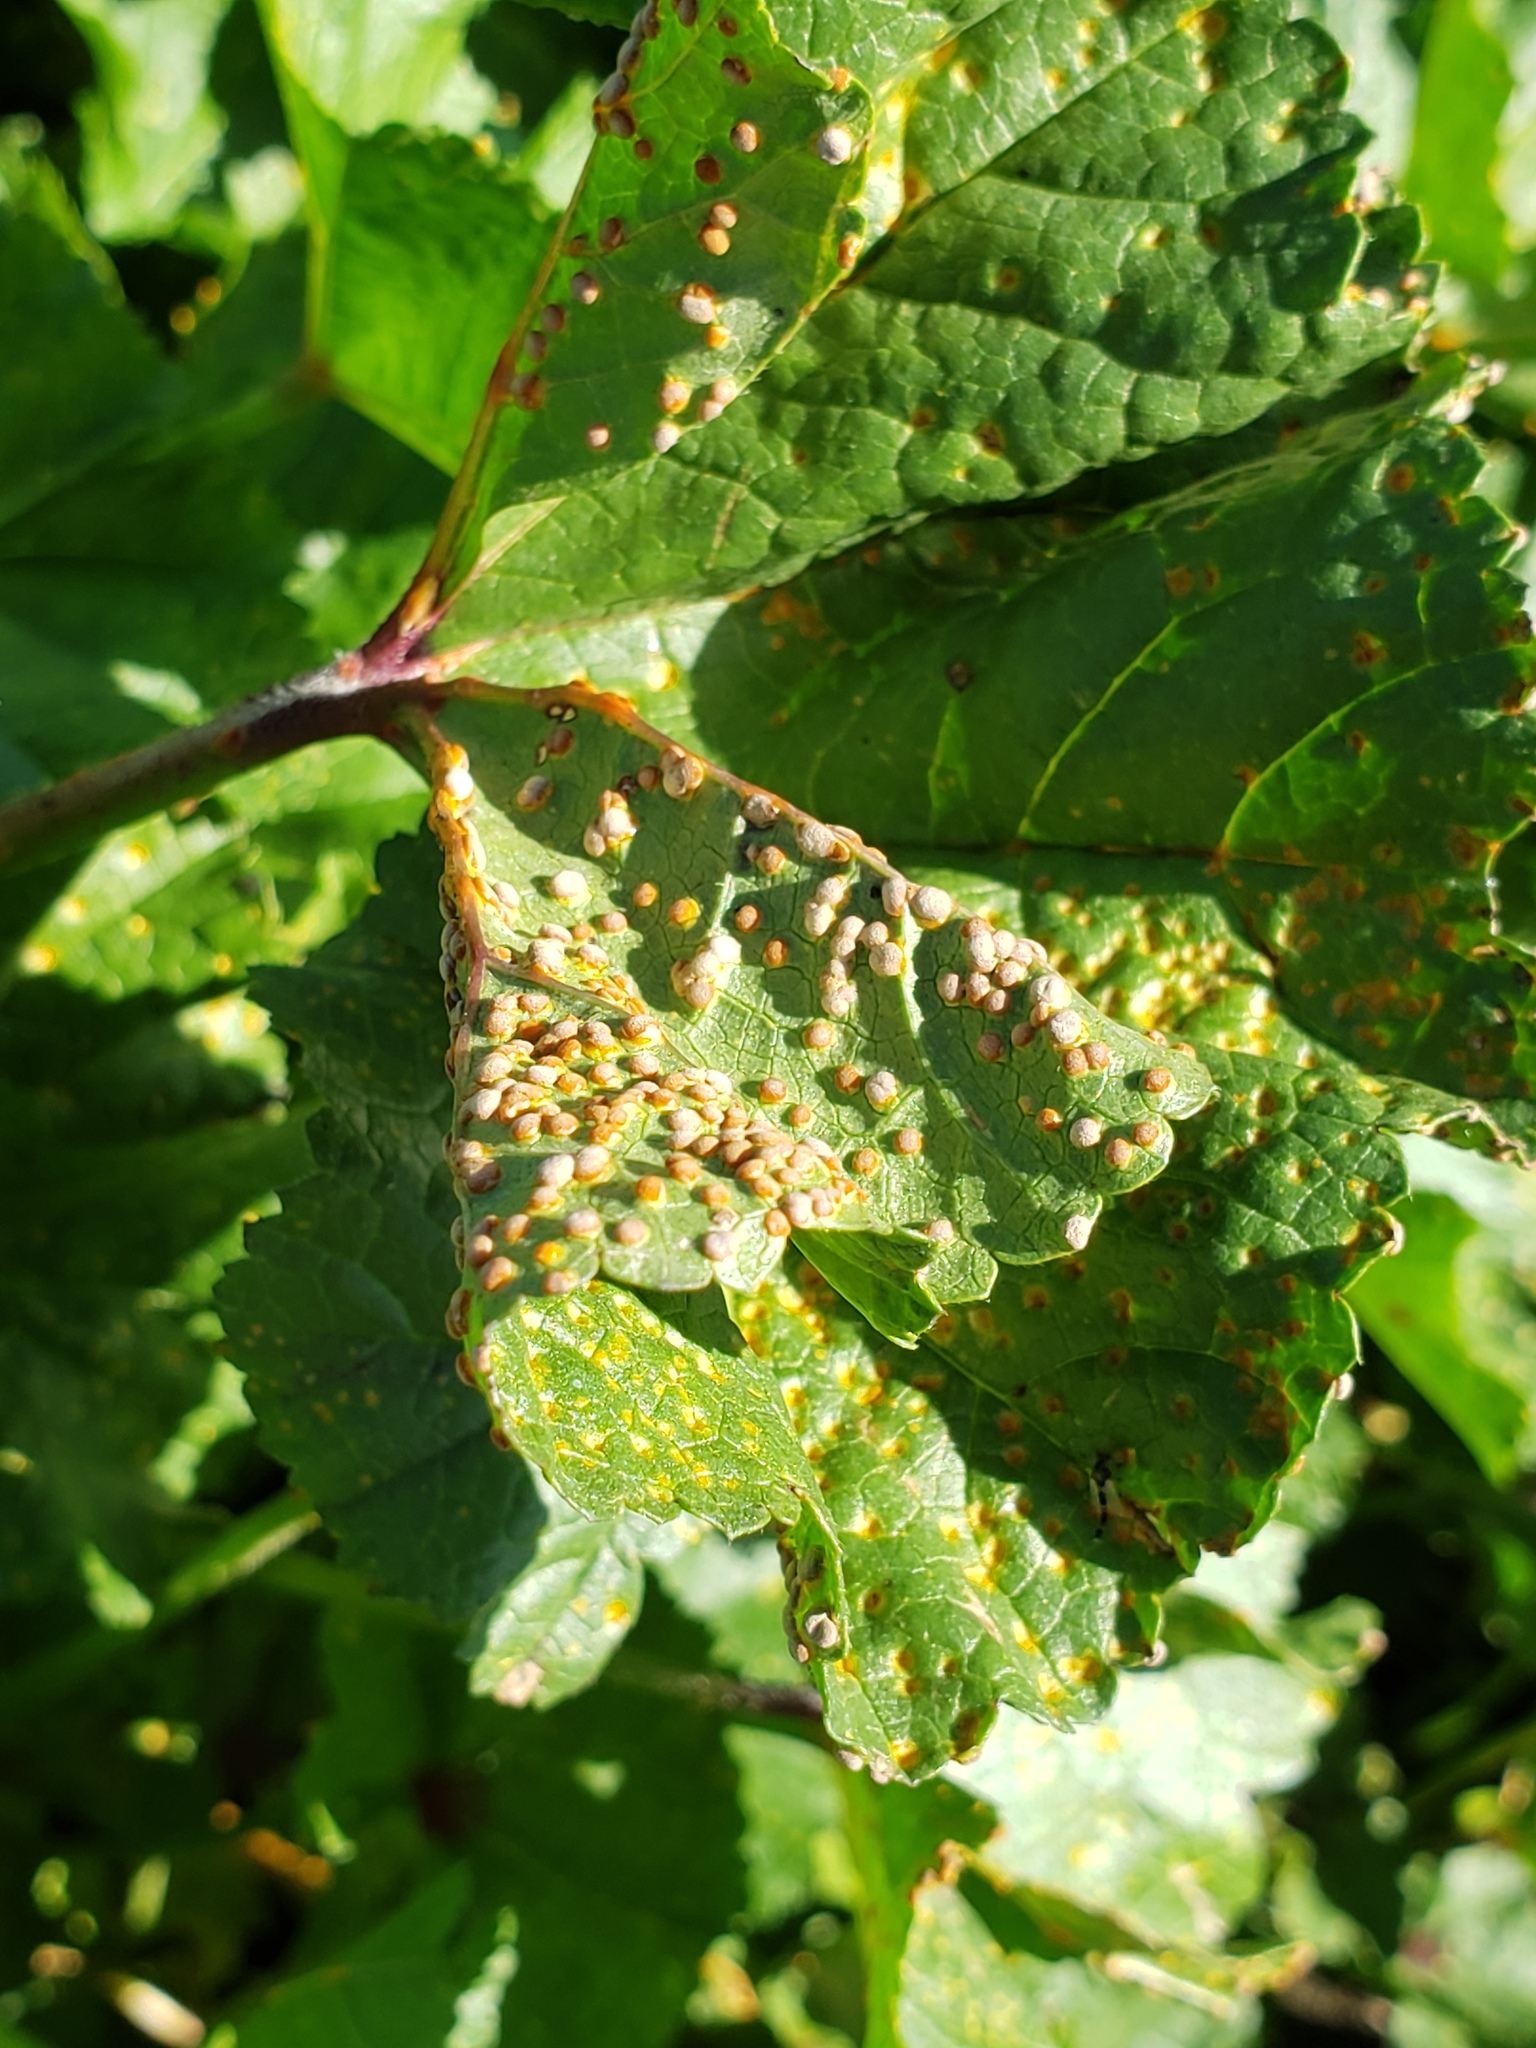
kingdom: Fungi
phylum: Basidiomycota
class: Pucciniomycetes
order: Pucciniales
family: Pucciniaceae
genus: Puccinia
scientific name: Puccinia malvacearum
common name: Hollyhock rust
